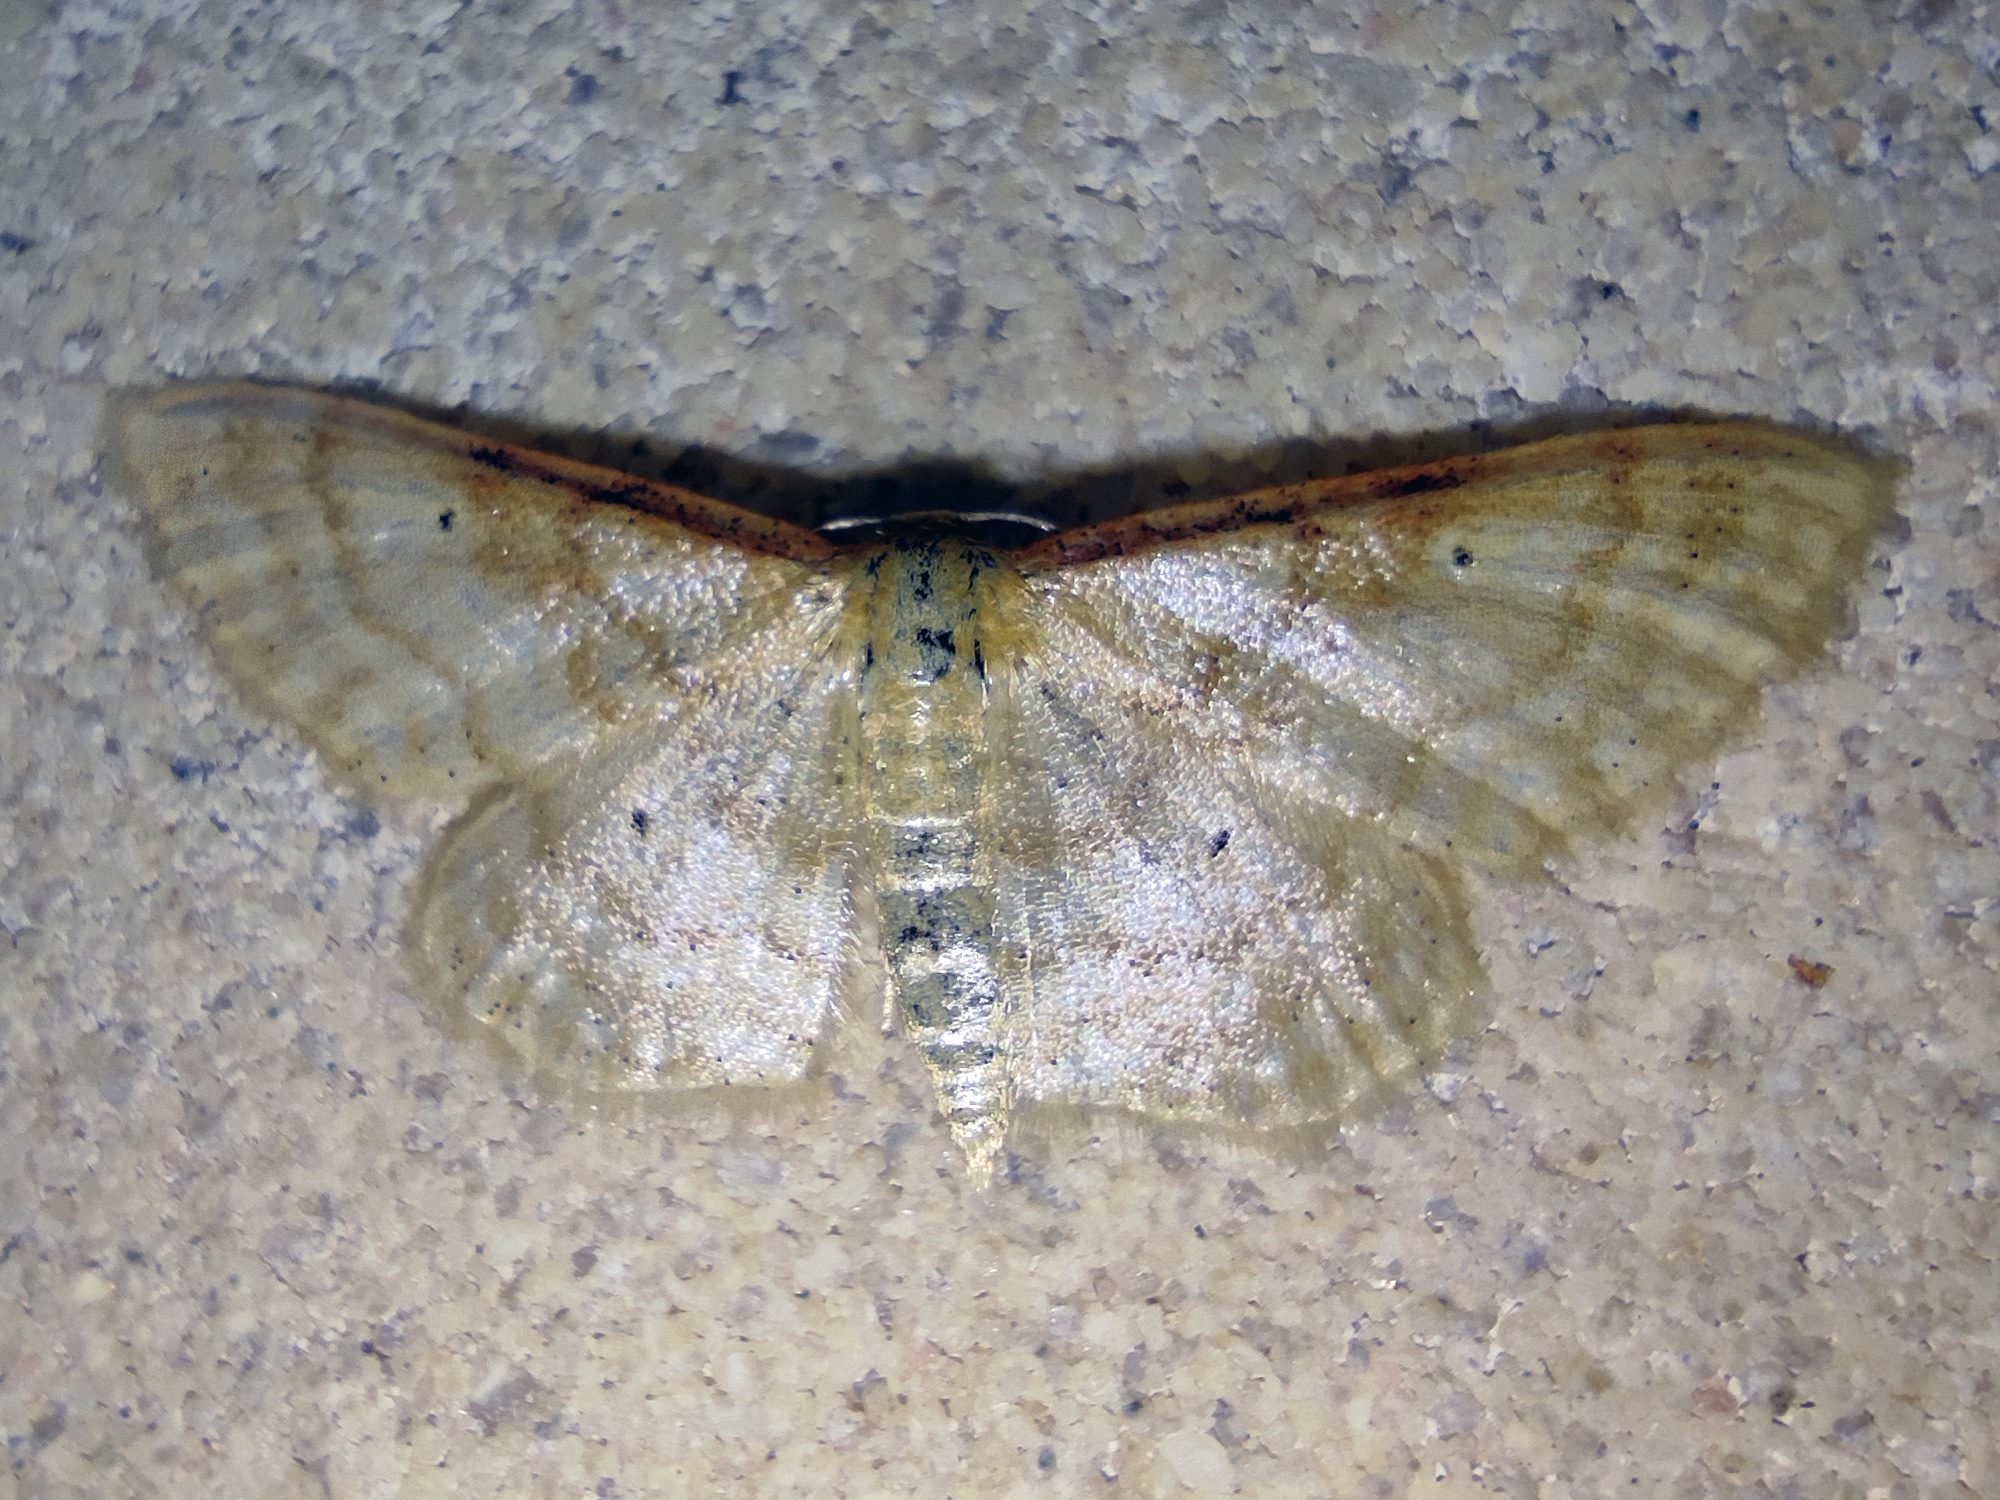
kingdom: Animalia
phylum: Arthropoda
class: Insecta
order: Lepidoptera
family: Geometridae
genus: Idaea
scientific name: Idaea humiliata
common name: Isle of wight wave
